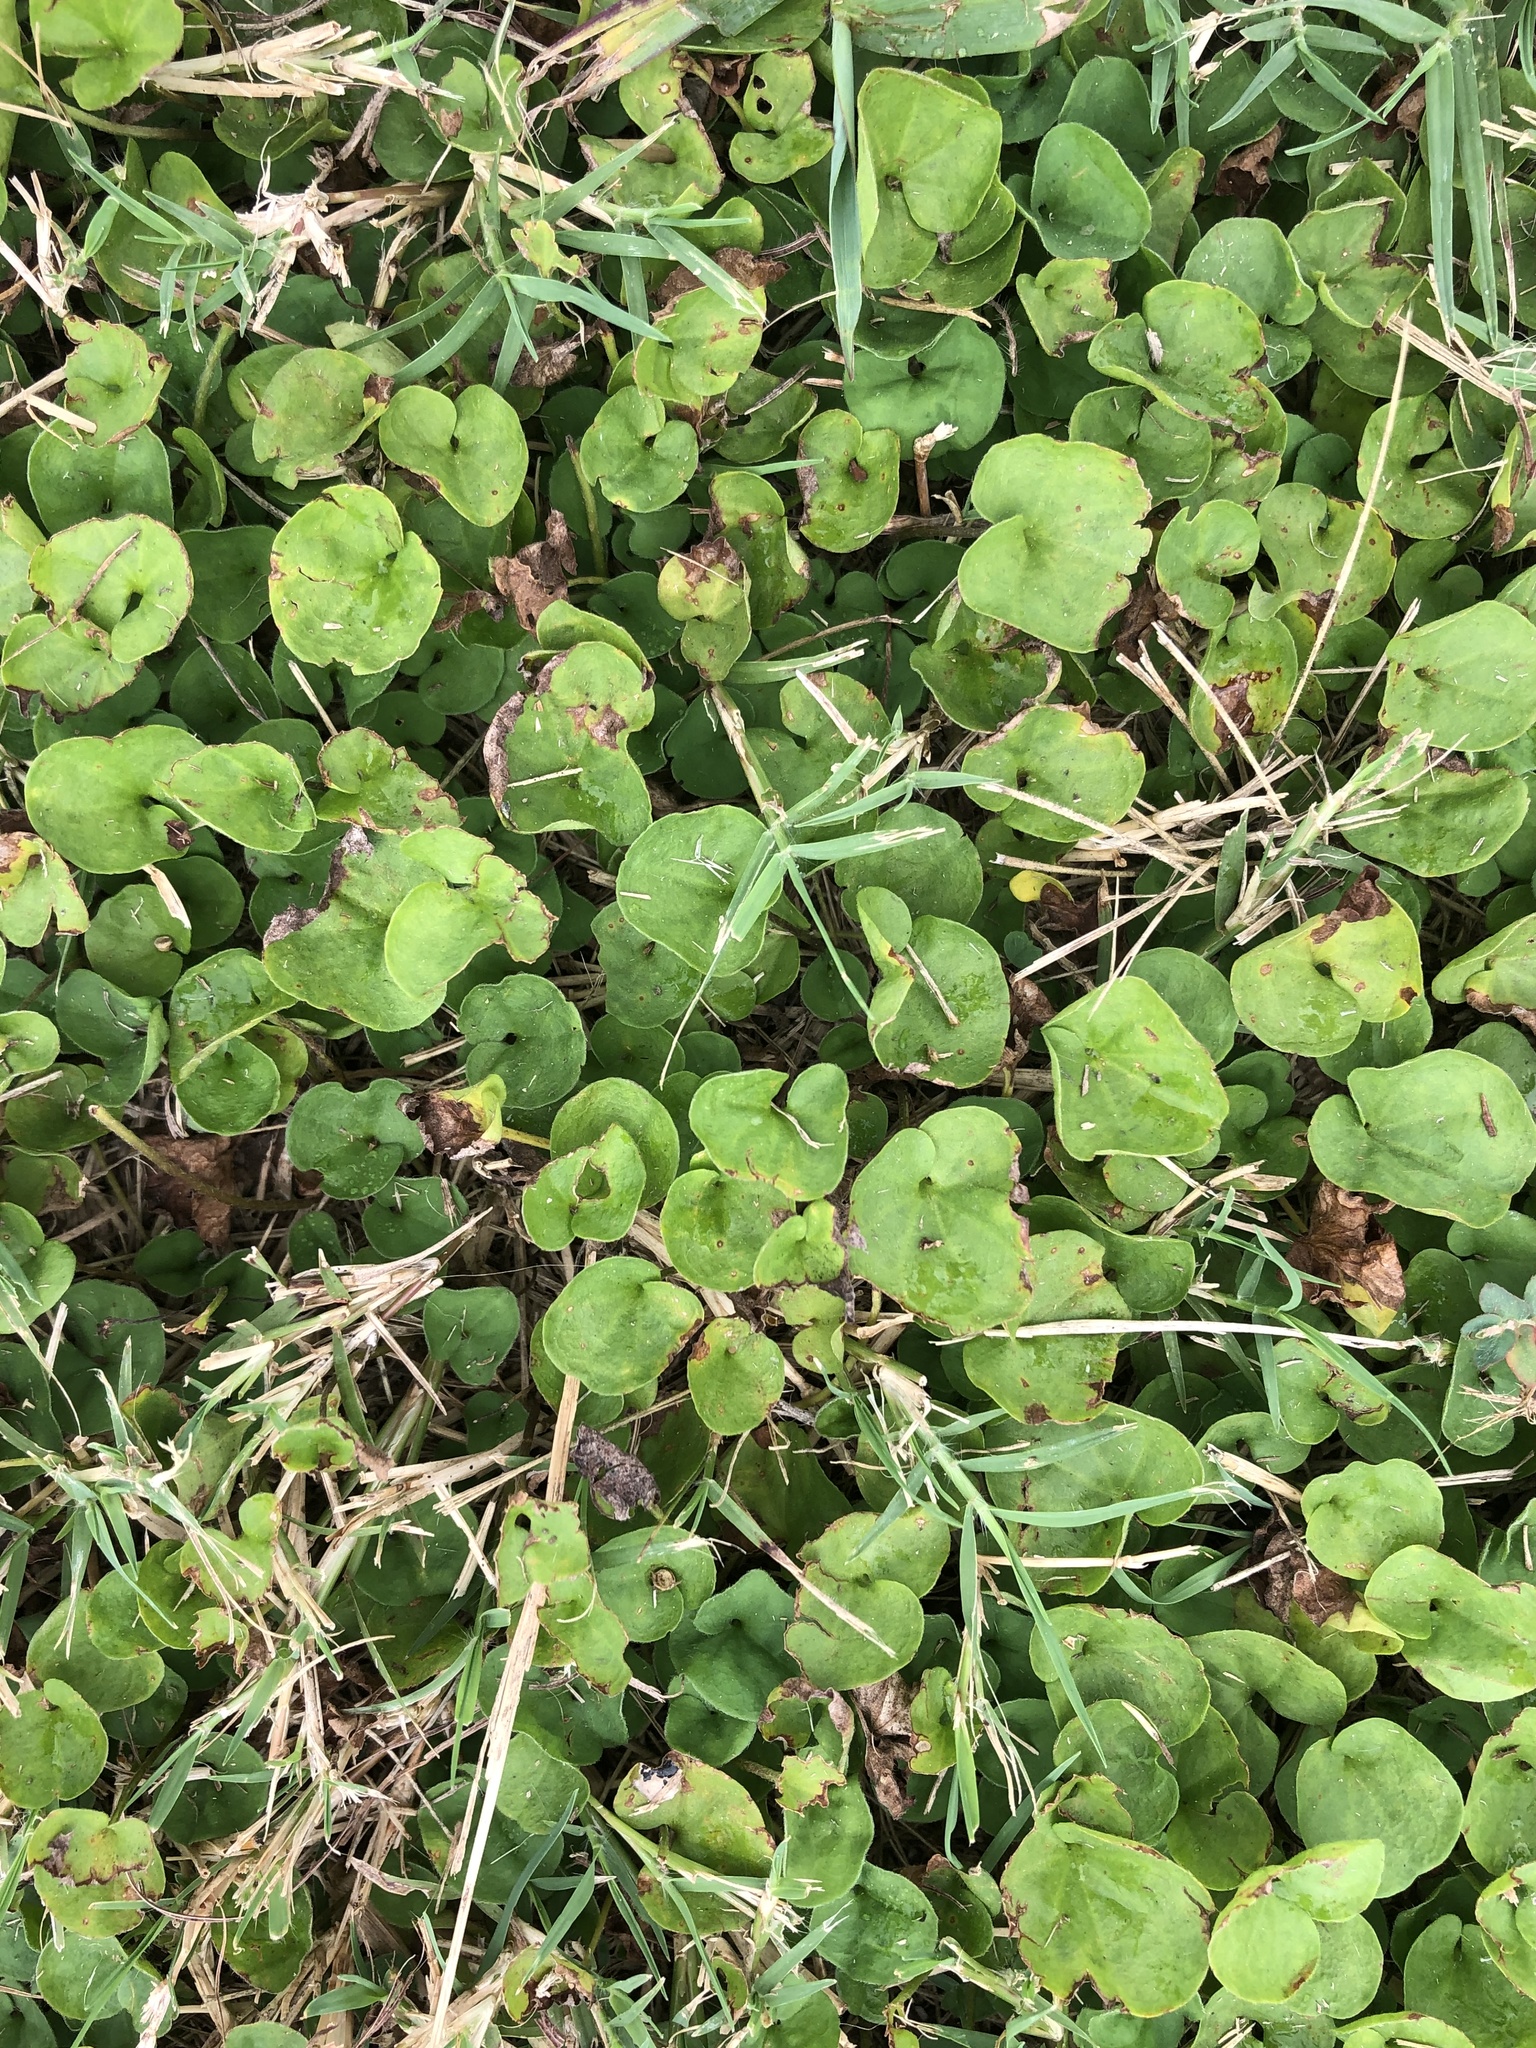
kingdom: Plantae
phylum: Tracheophyta
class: Magnoliopsida
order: Solanales
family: Convolvulaceae
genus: Dichondra
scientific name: Dichondra carolinensis
